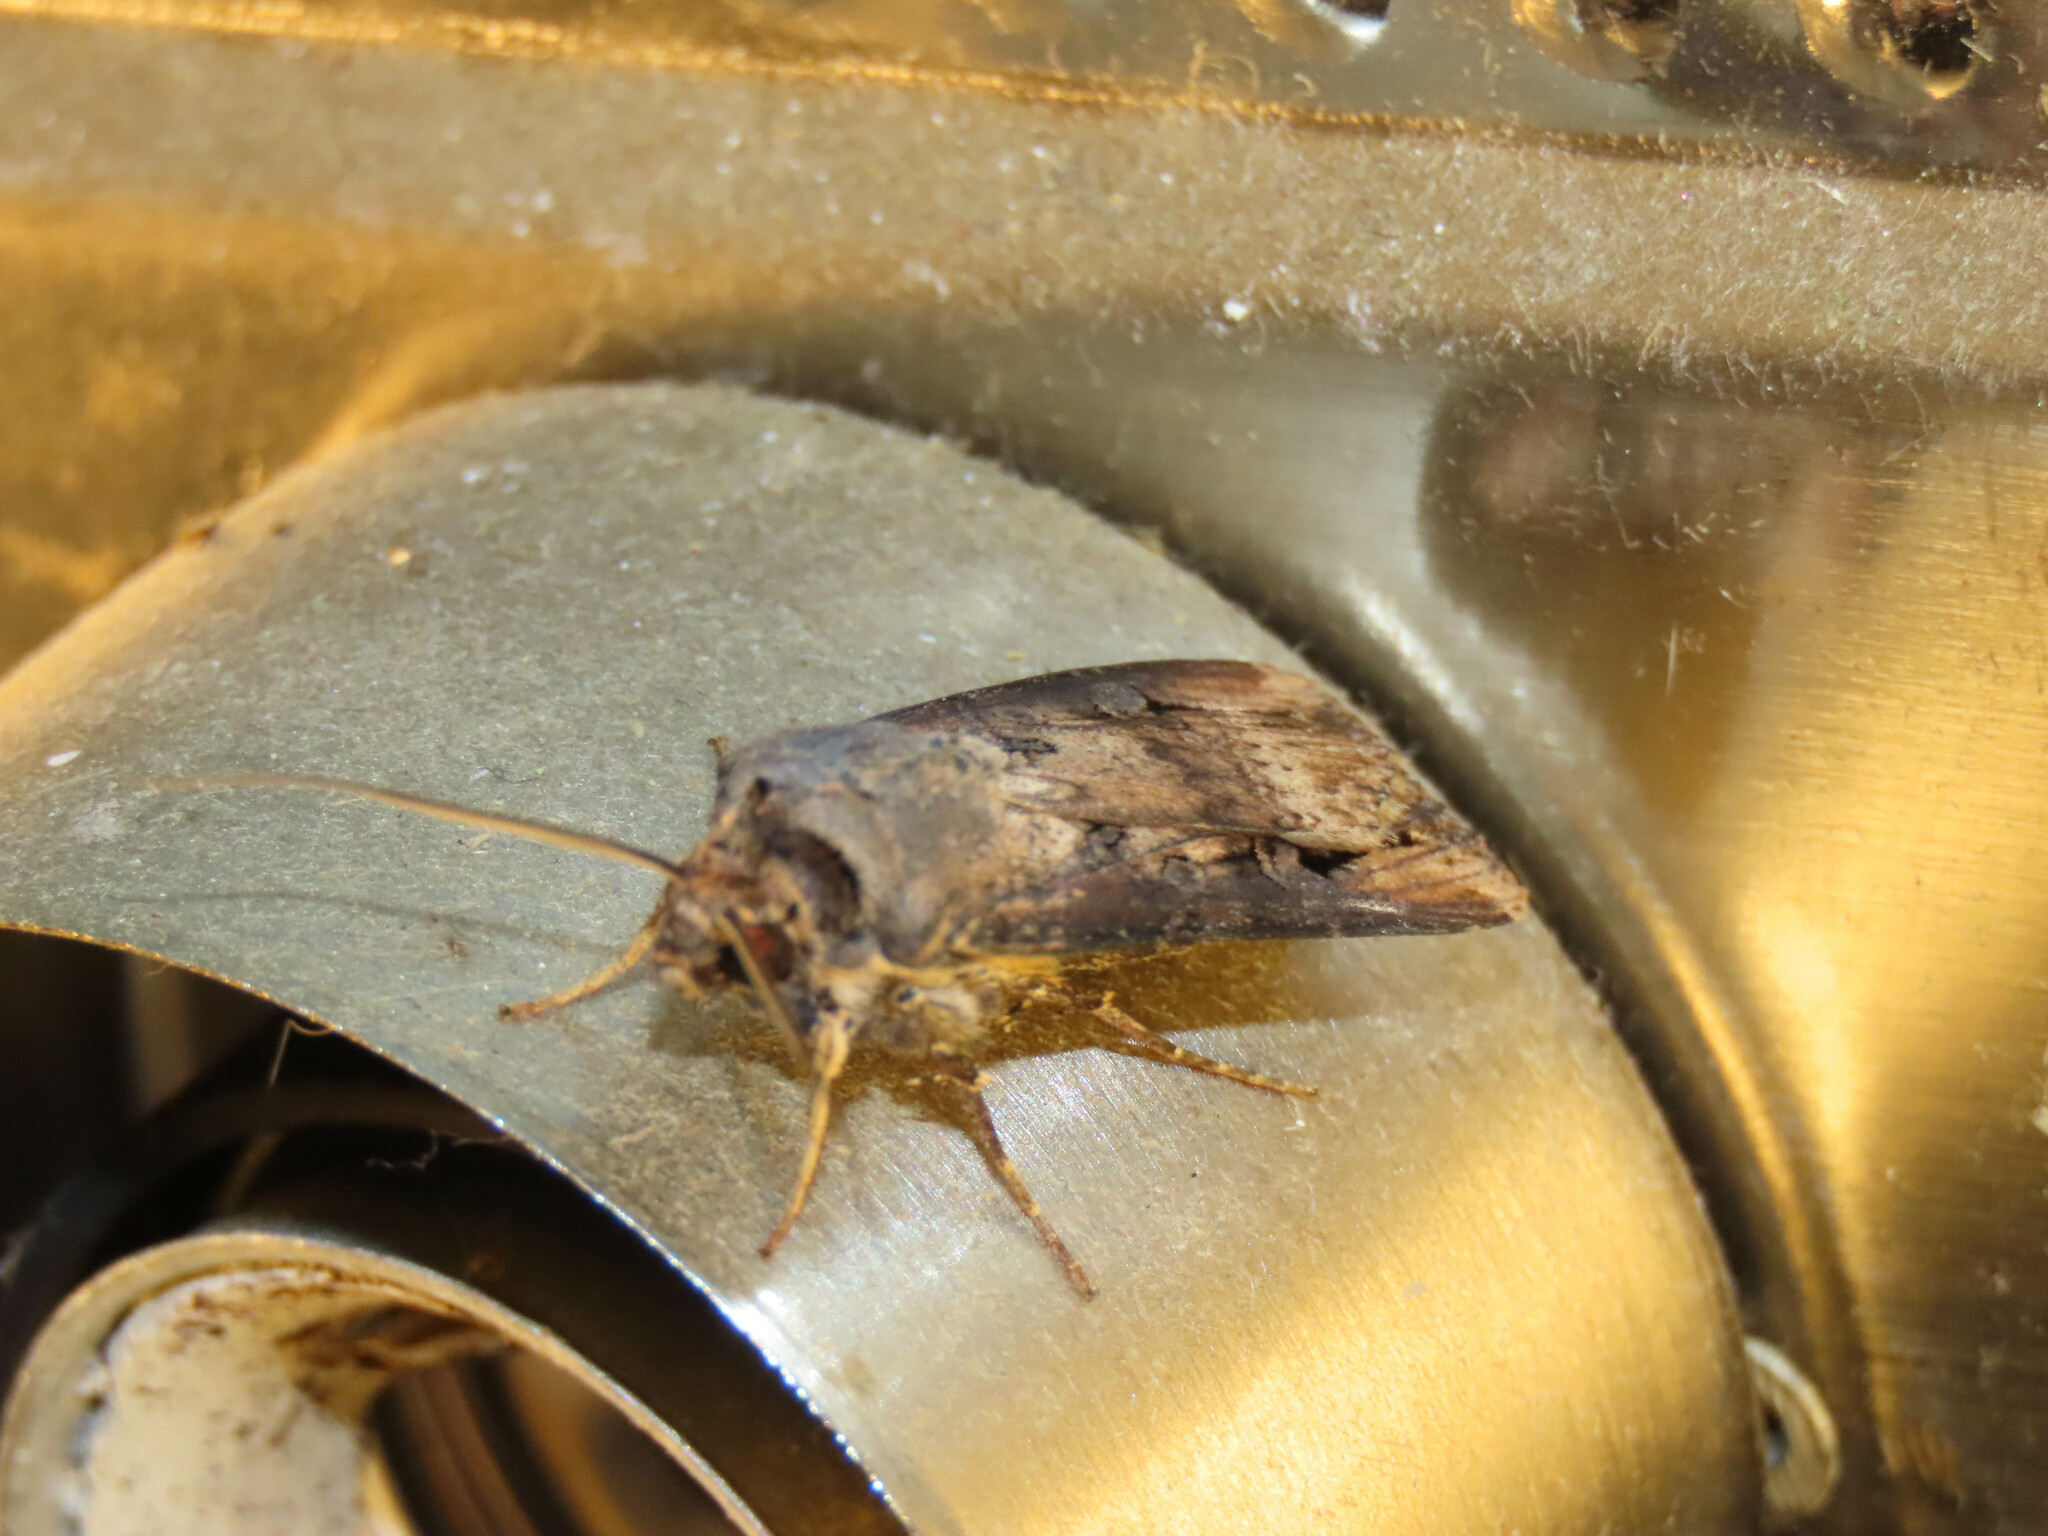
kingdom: Animalia
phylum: Arthropoda
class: Insecta
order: Lepidoptera
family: Noctuidae
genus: Agrotis
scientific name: Agrotis ipsilon
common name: Dark sword-grass
